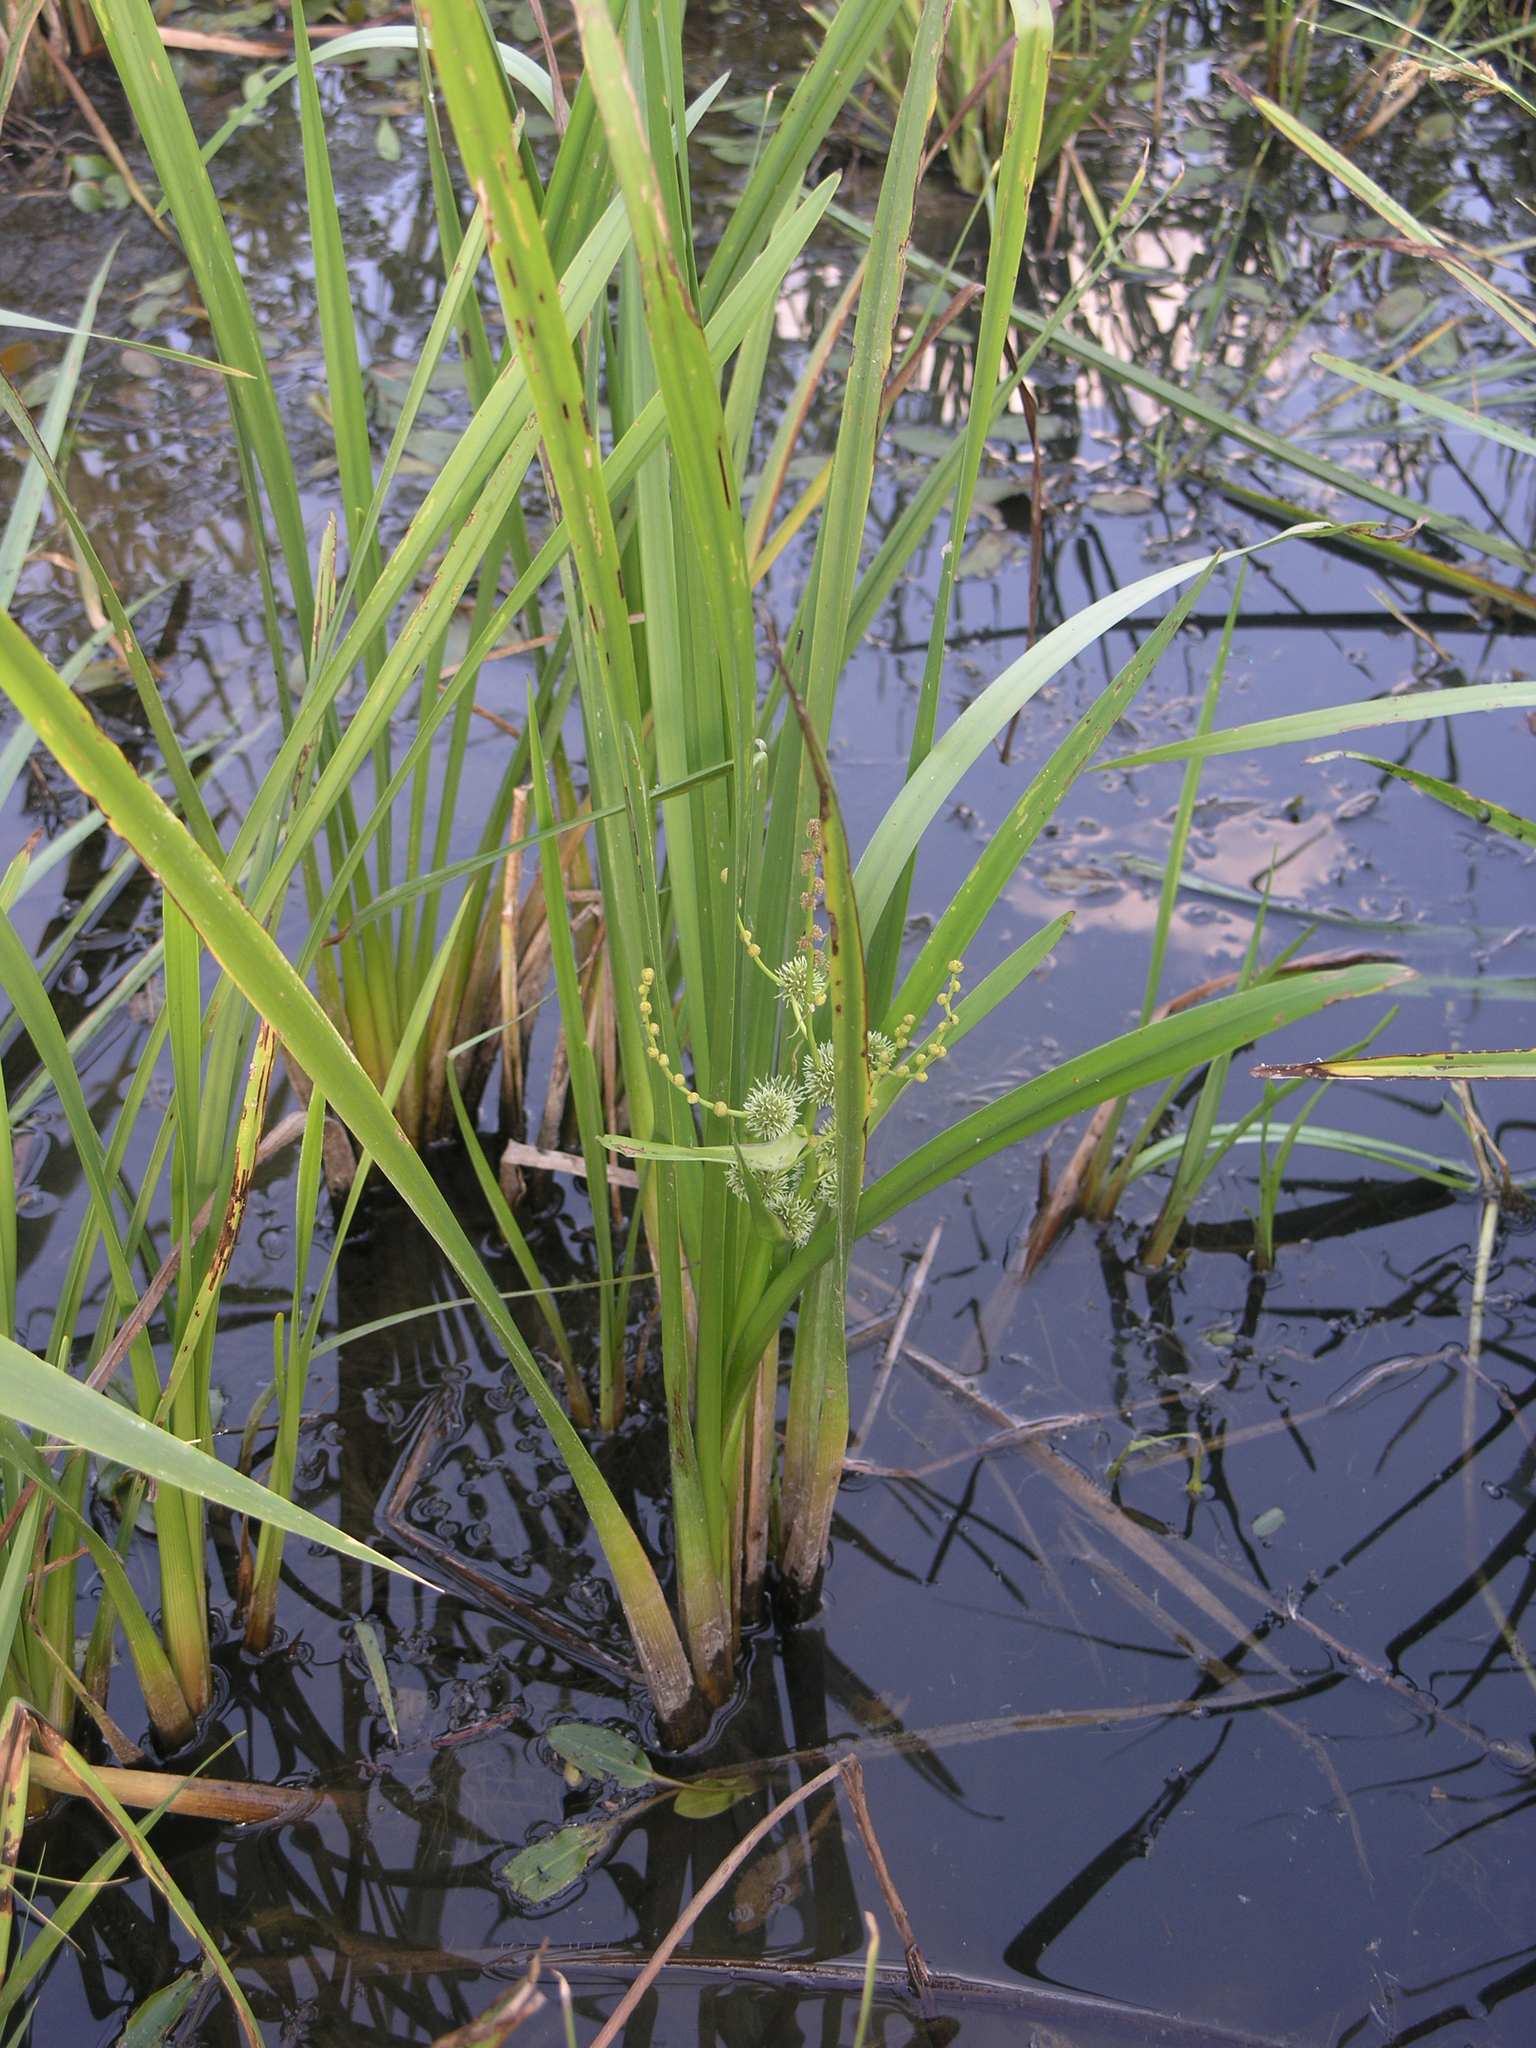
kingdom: Plantae
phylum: Tracheophyta
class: Liliopsida
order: Poales
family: Typhaceae
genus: Sparganium
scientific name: Sparganium erectum
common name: Branched bur-reed
